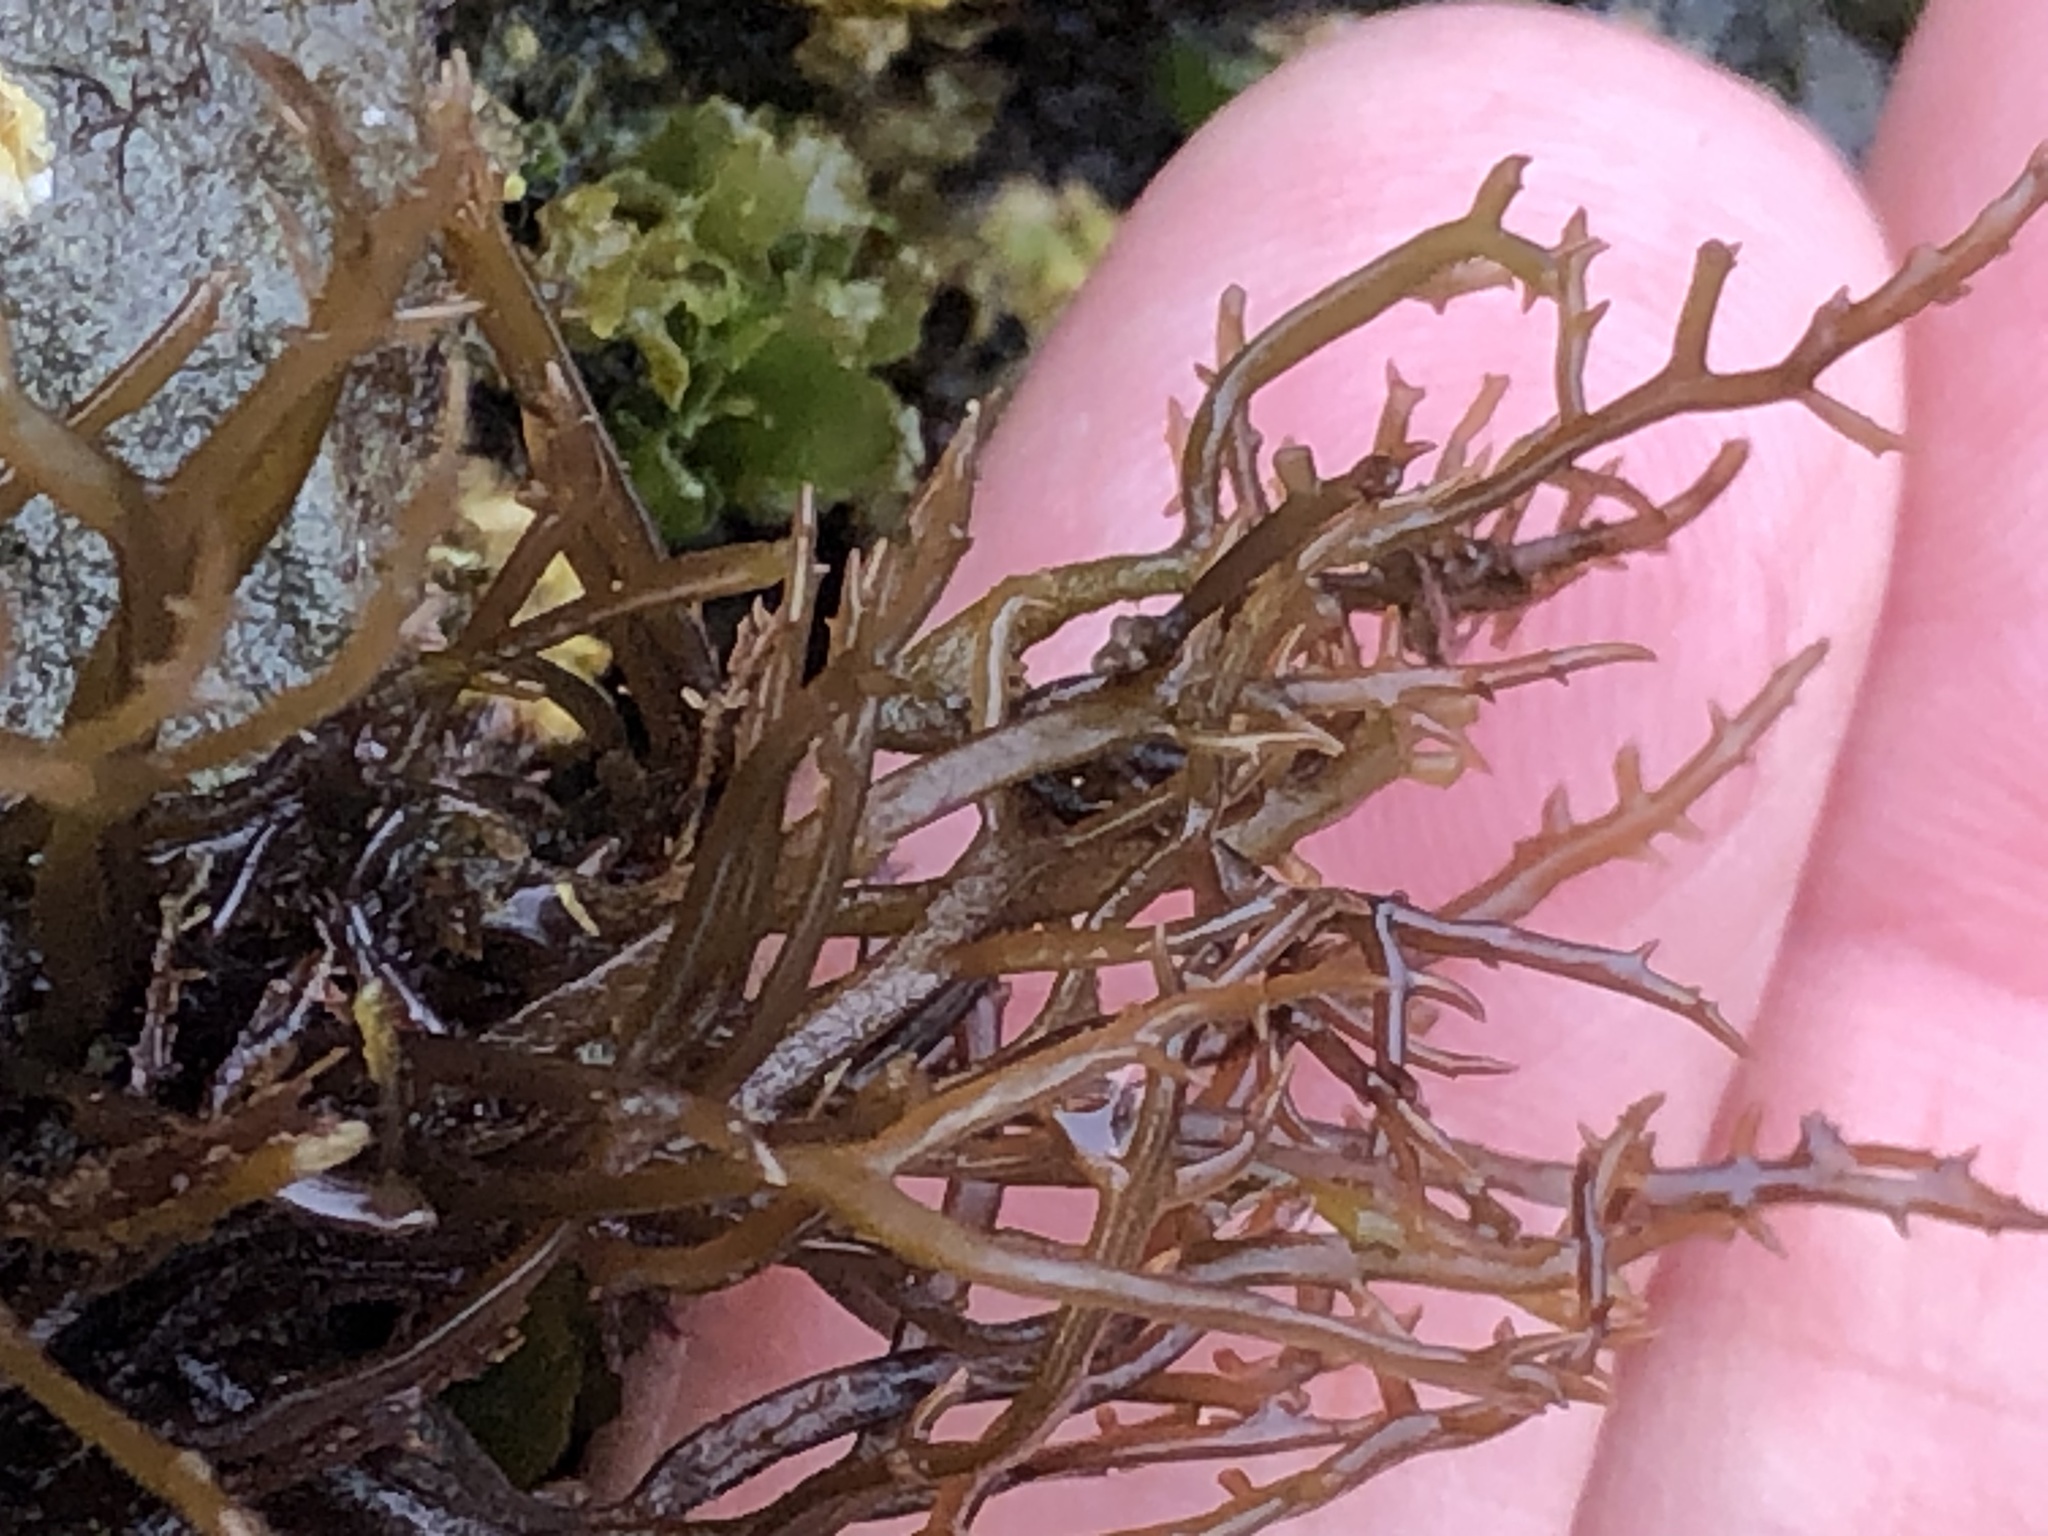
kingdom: Plantae
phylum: Rhodophyta
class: Florideophyceae
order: Gigartinales
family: Gigartinaceae
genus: Chondracanthus
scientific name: Chondracanthus canaliculatus
